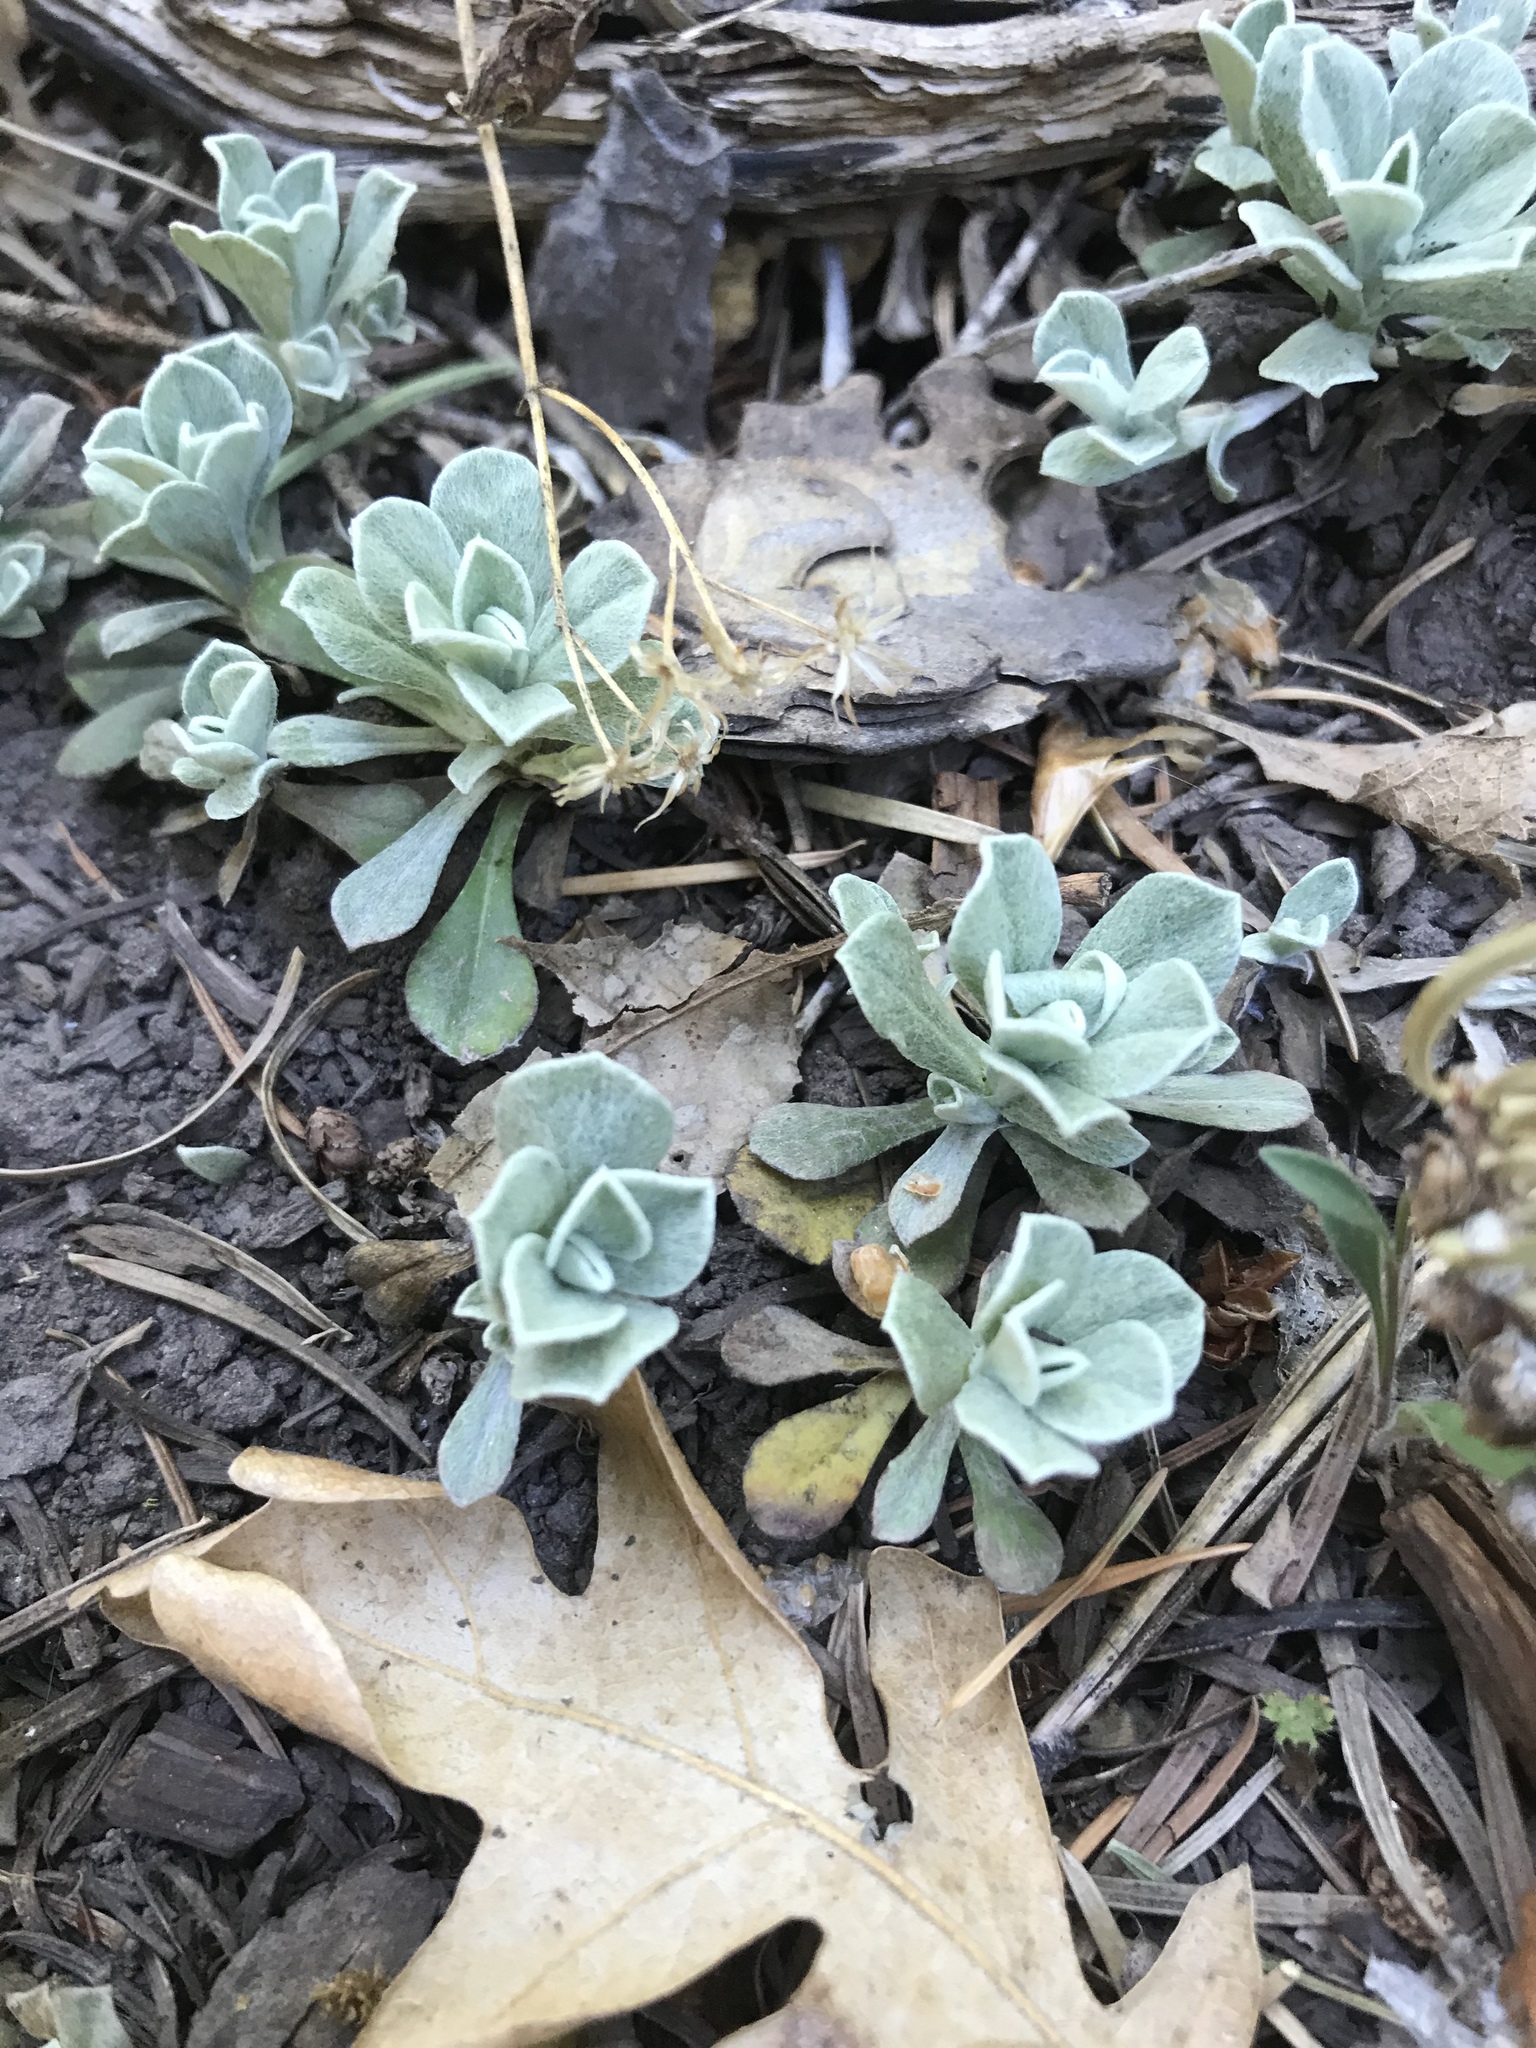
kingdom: Plantae
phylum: Tracheophyta
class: Magnoliopsida
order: Asterales
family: Asteraceae
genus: Antennaria
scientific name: Antennaria parvifolia
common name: Nuttall's pussytoes
